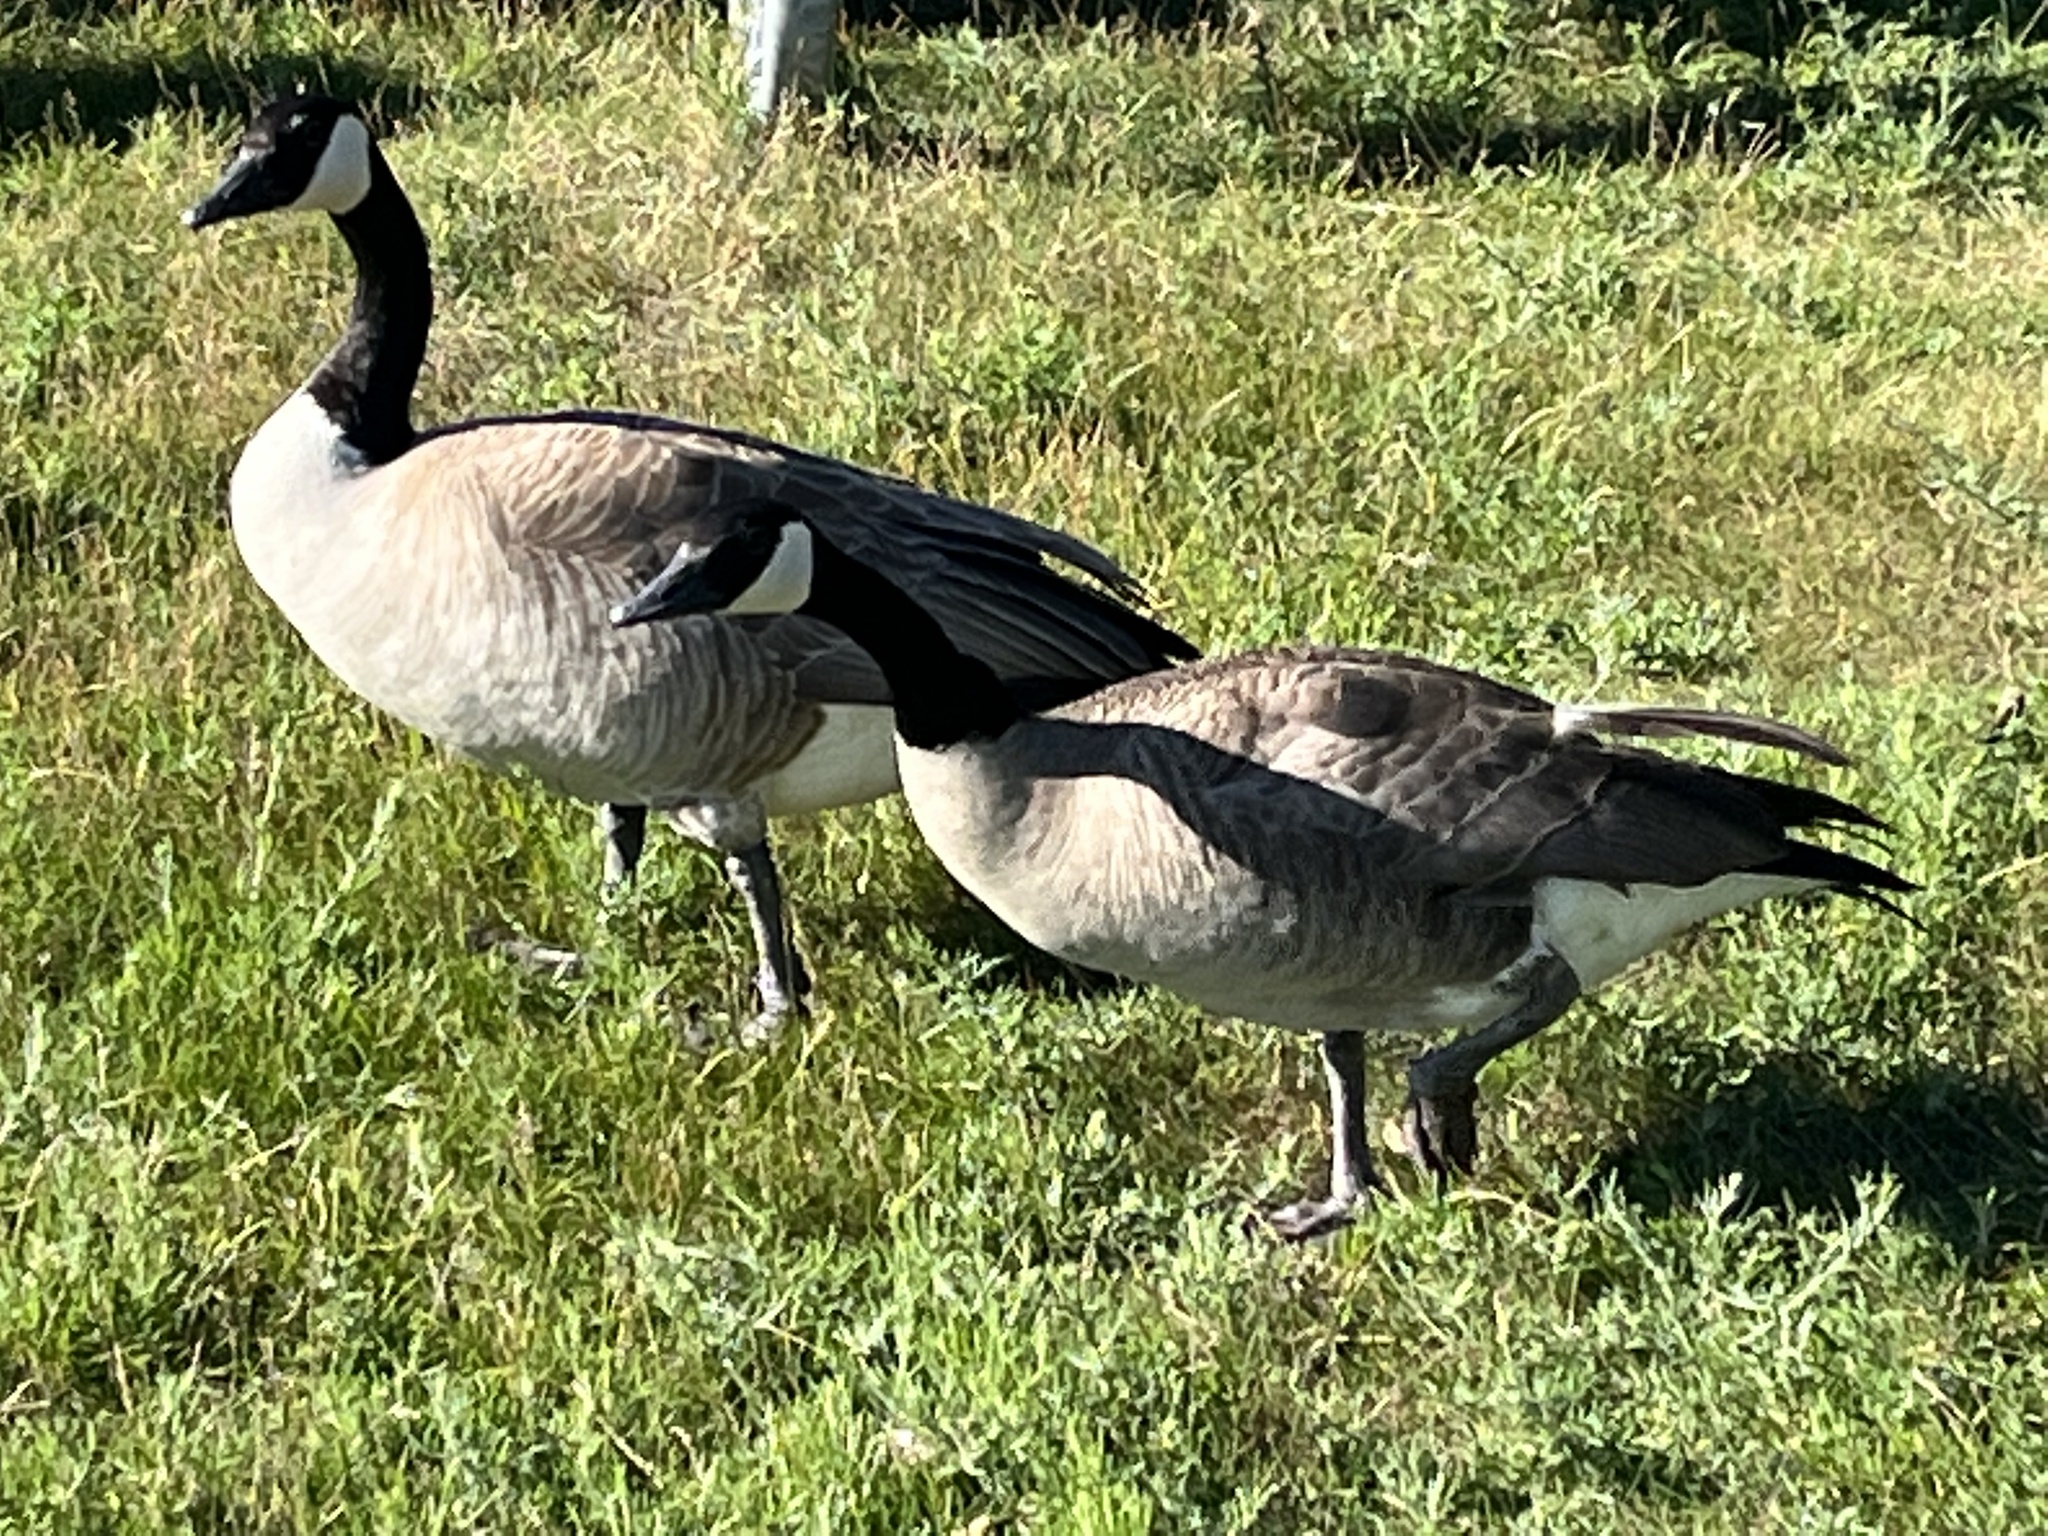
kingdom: Animalia
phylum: Chordata
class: Aves
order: Anseriformes
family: Anatidae
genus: Branta
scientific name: Branta canadensis
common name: Canada goose
